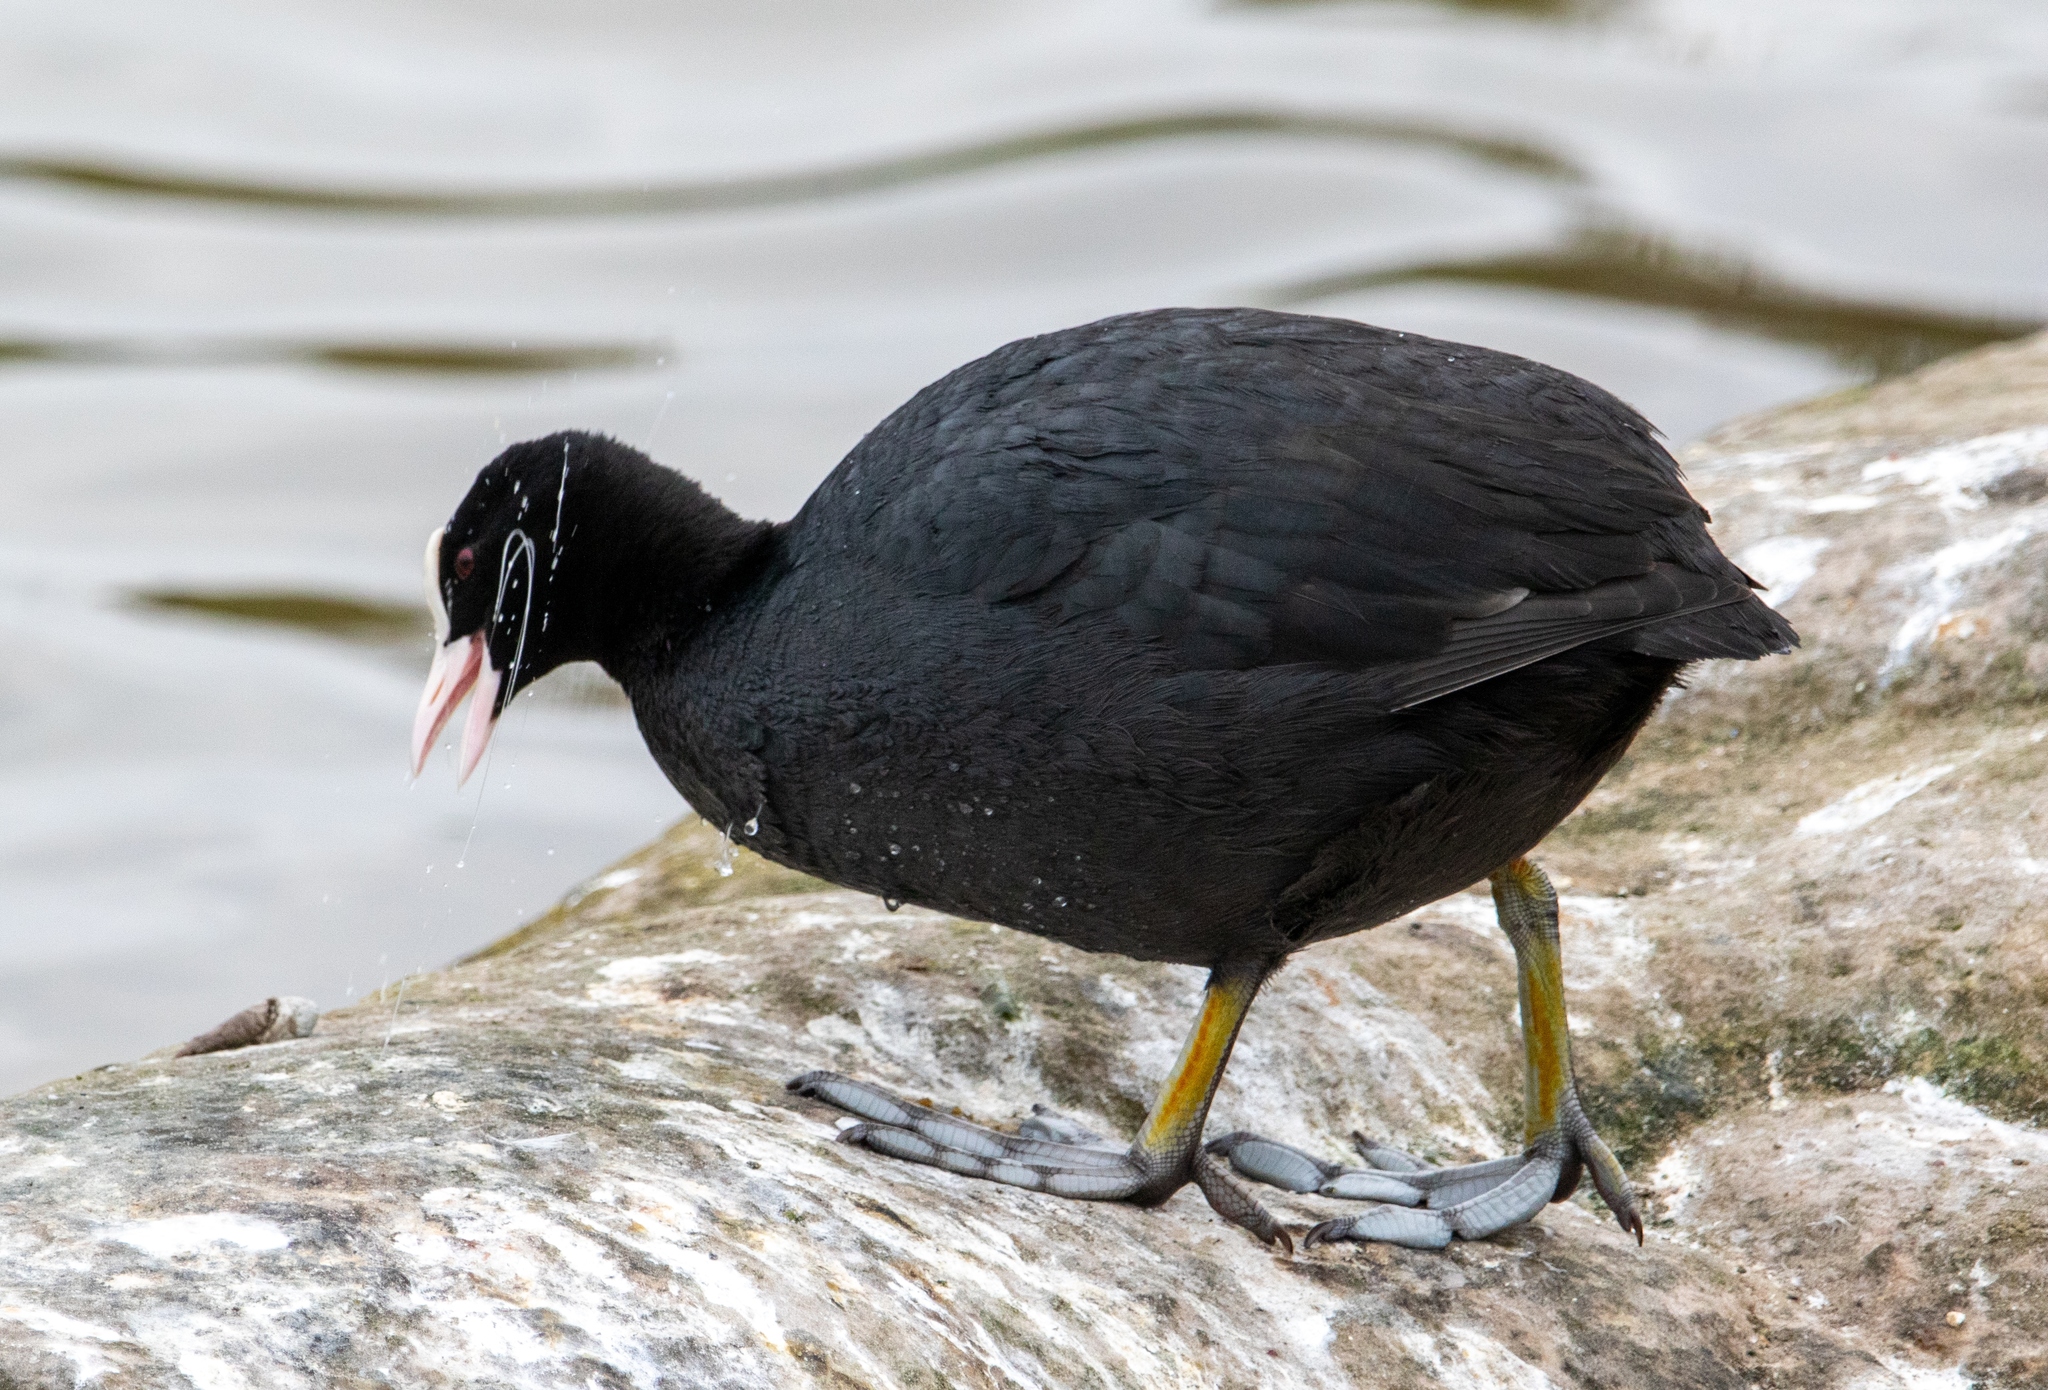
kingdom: Animalia
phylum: Chordata
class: Aves
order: Gruiformes
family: Rallidae
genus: Fulica
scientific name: Fulica atra
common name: Eurasian coot
